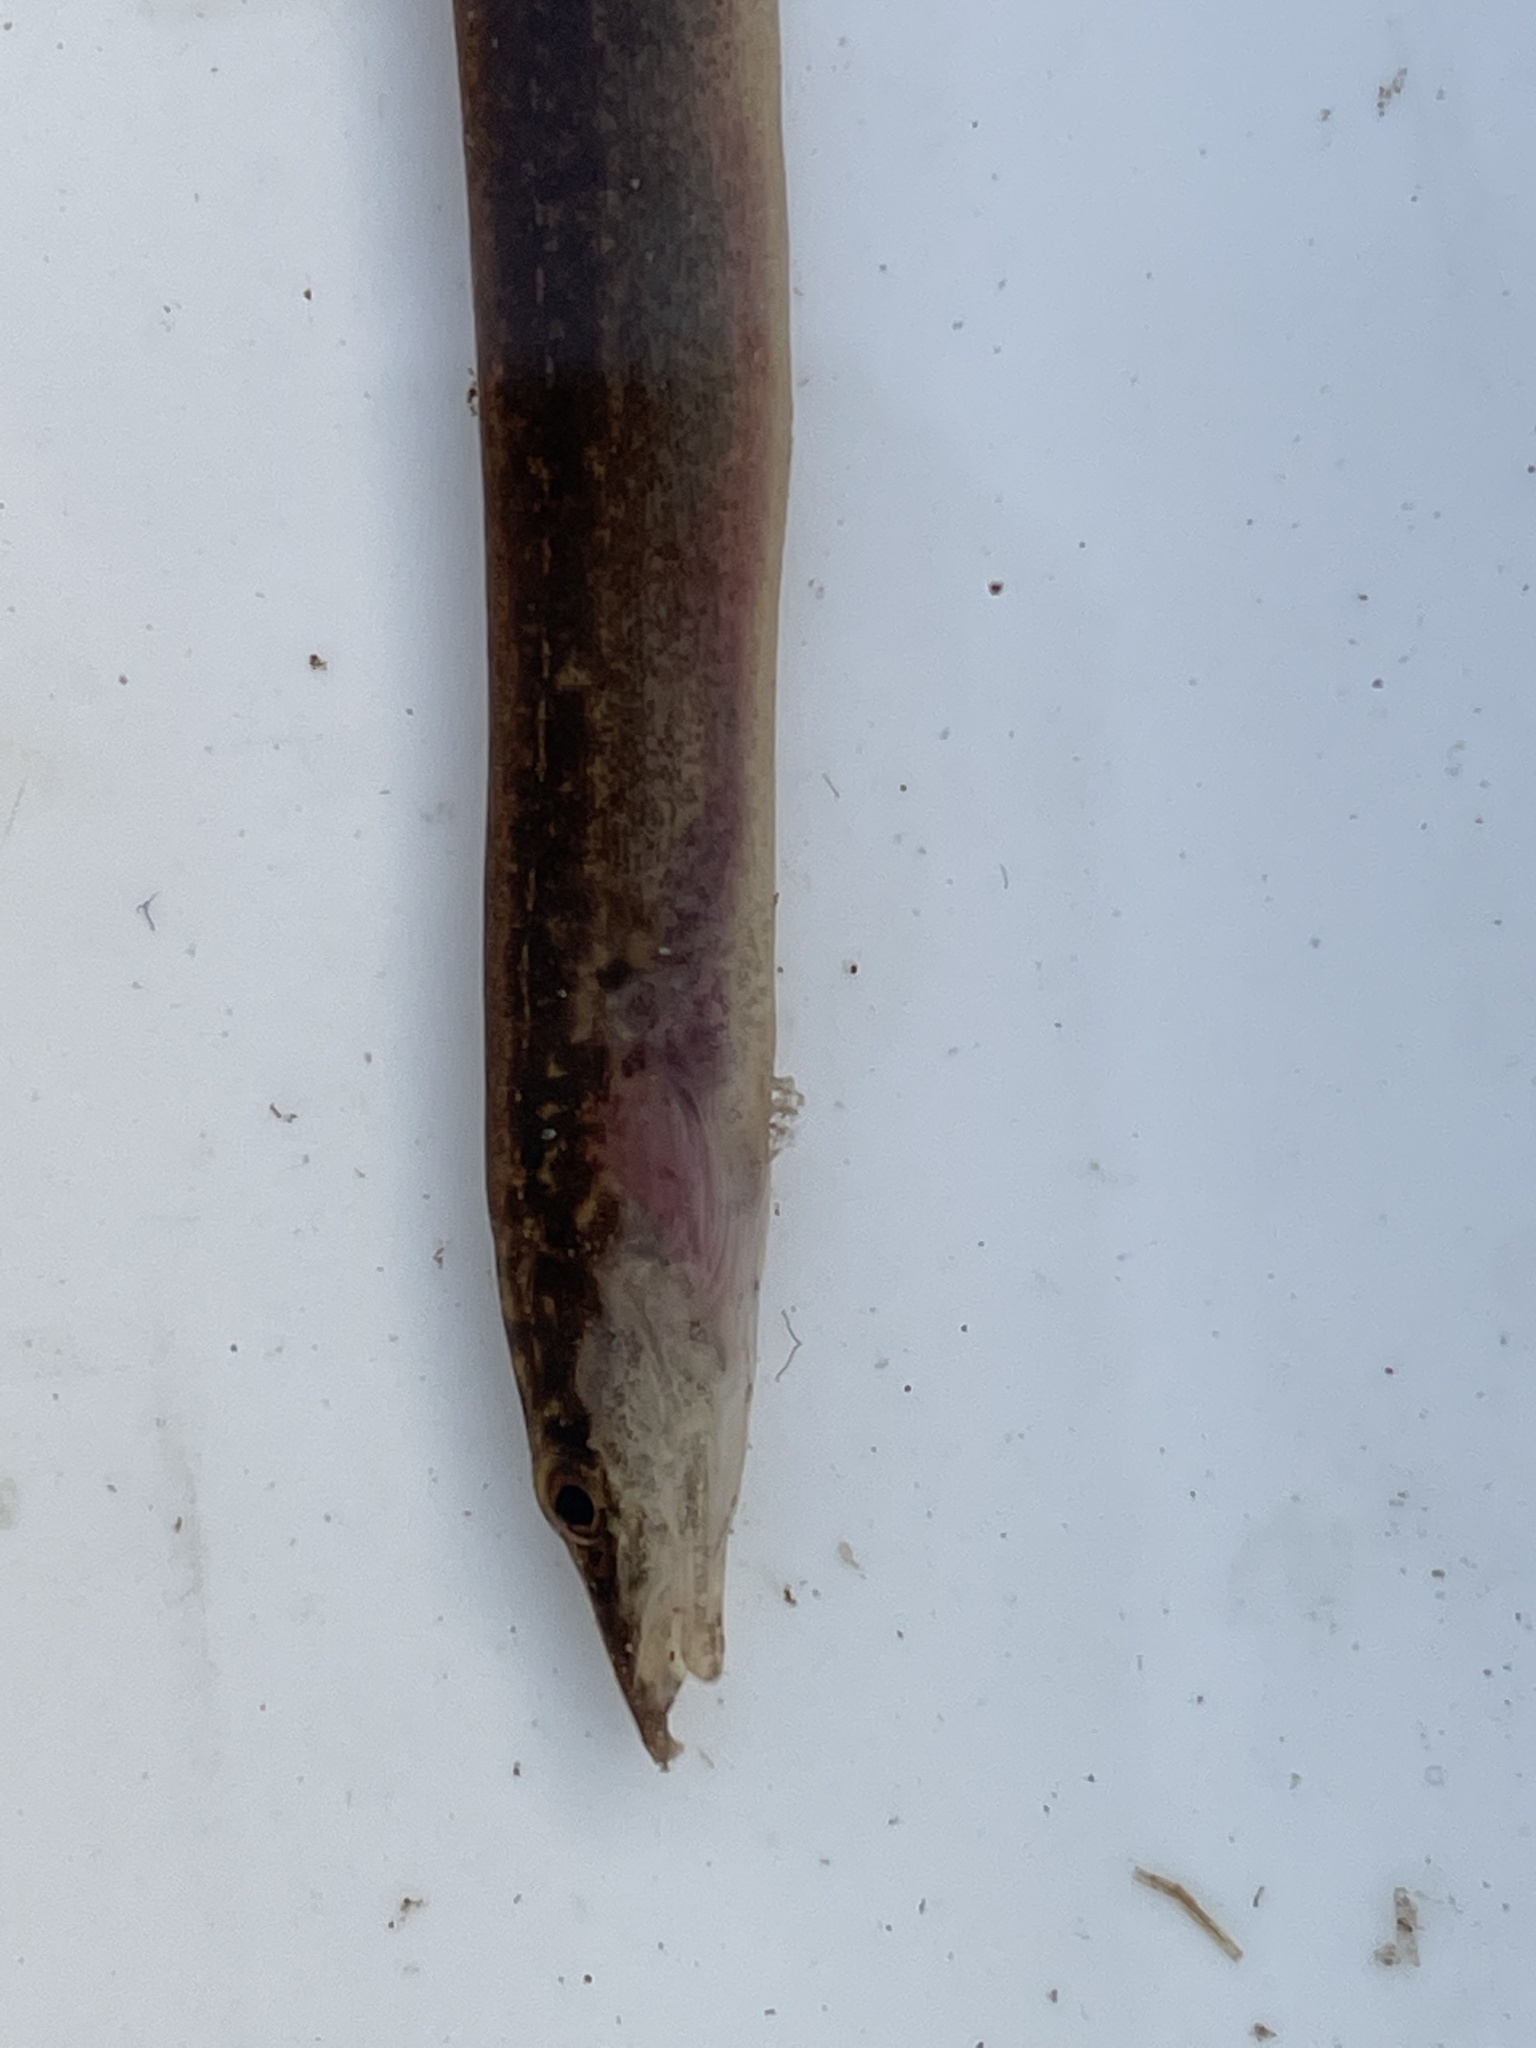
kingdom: Animalia
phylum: Chordata
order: Synbranchiformes
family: Mastacembelidae
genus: Mastacembelus
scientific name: Mastacembelus frenatus
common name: East african spiny eel
